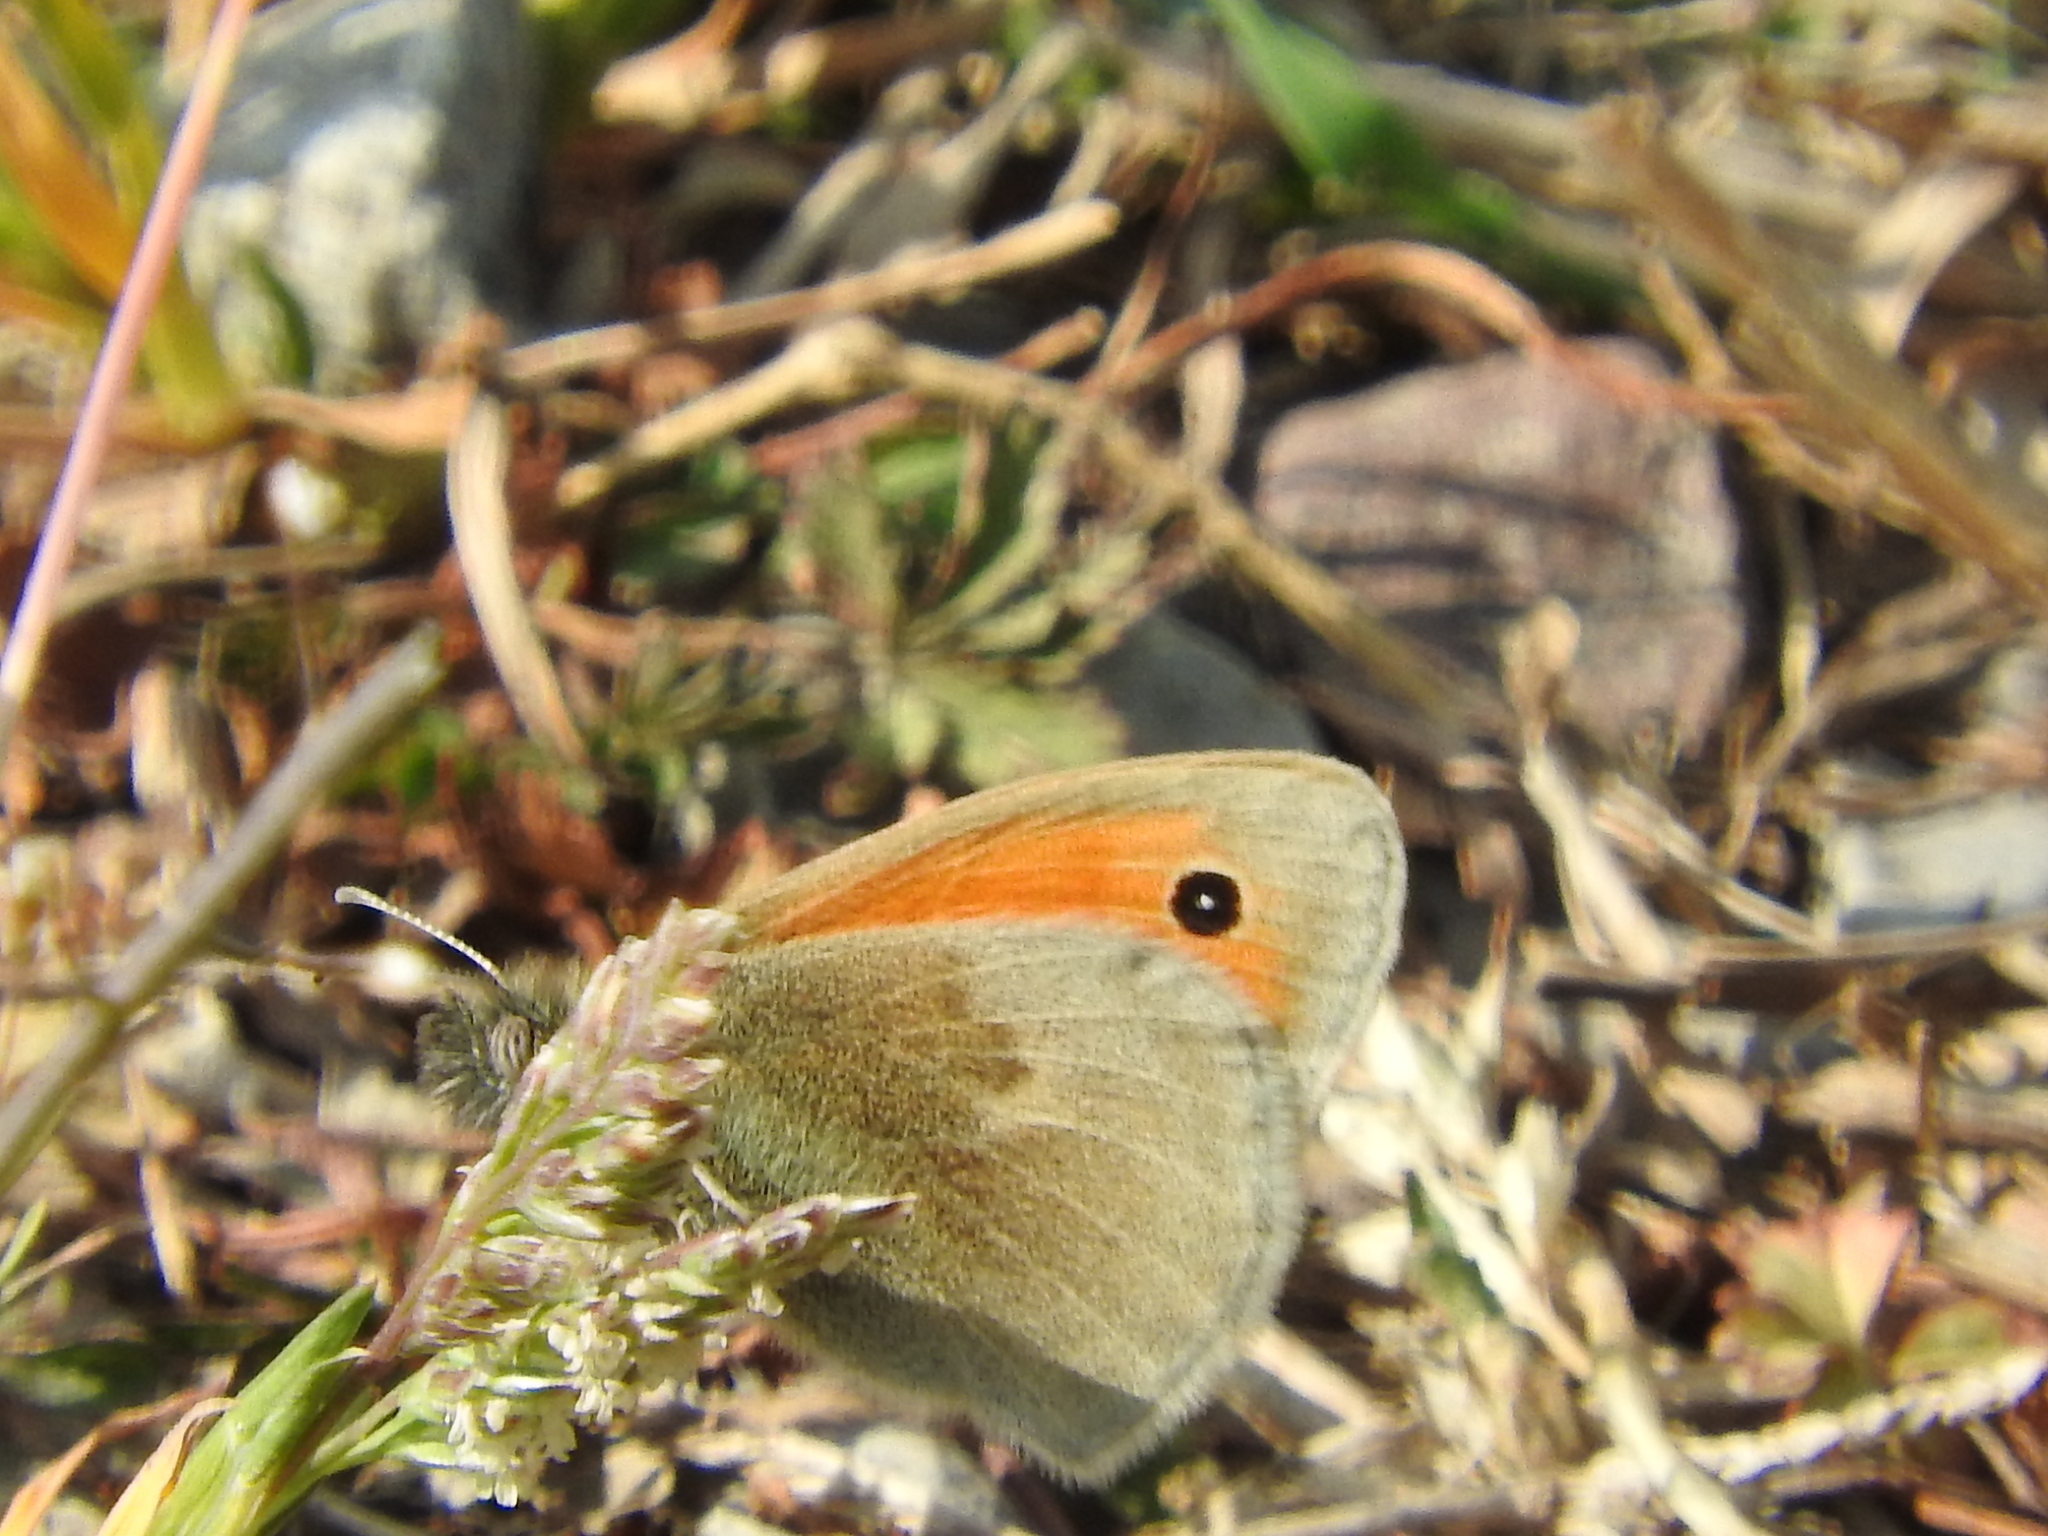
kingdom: Animalia
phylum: Arthropoda
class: Insecta
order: Lepidoptera
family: Nymphalidae
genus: Coenonympha
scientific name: Coenonympha pamphilus
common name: Small heath
